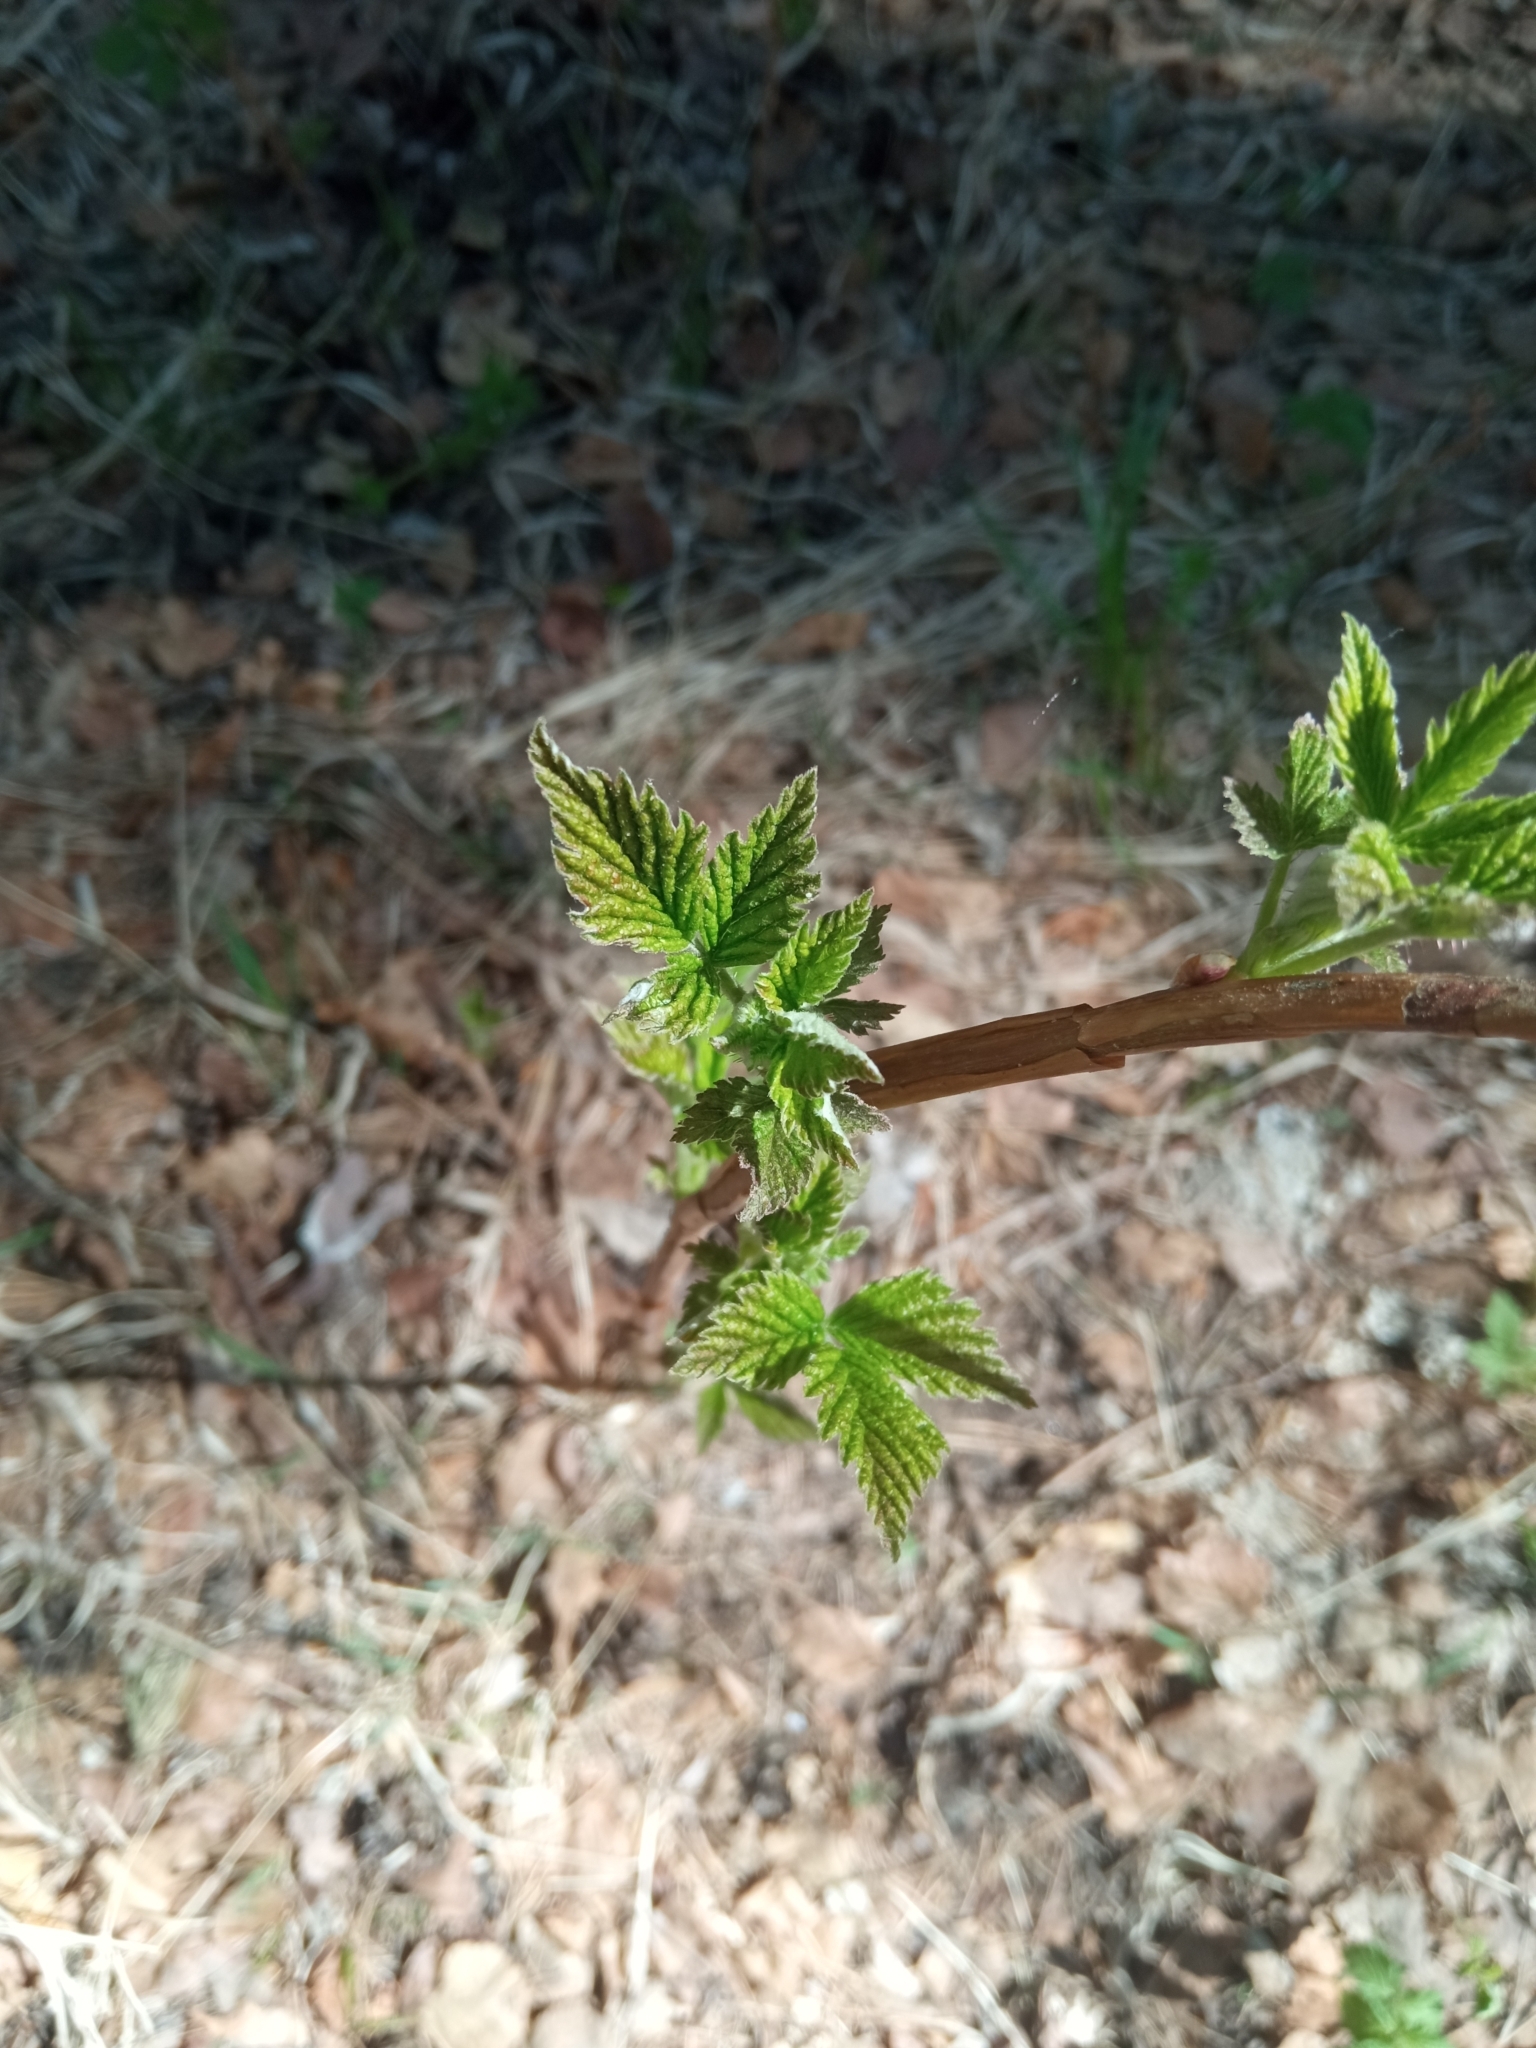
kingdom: Plantae
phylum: Tracheophyta
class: Magnoliopsida
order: Rosales
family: Rosaceae
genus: Rubus
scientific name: Rubus idaeus
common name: Raspberry
